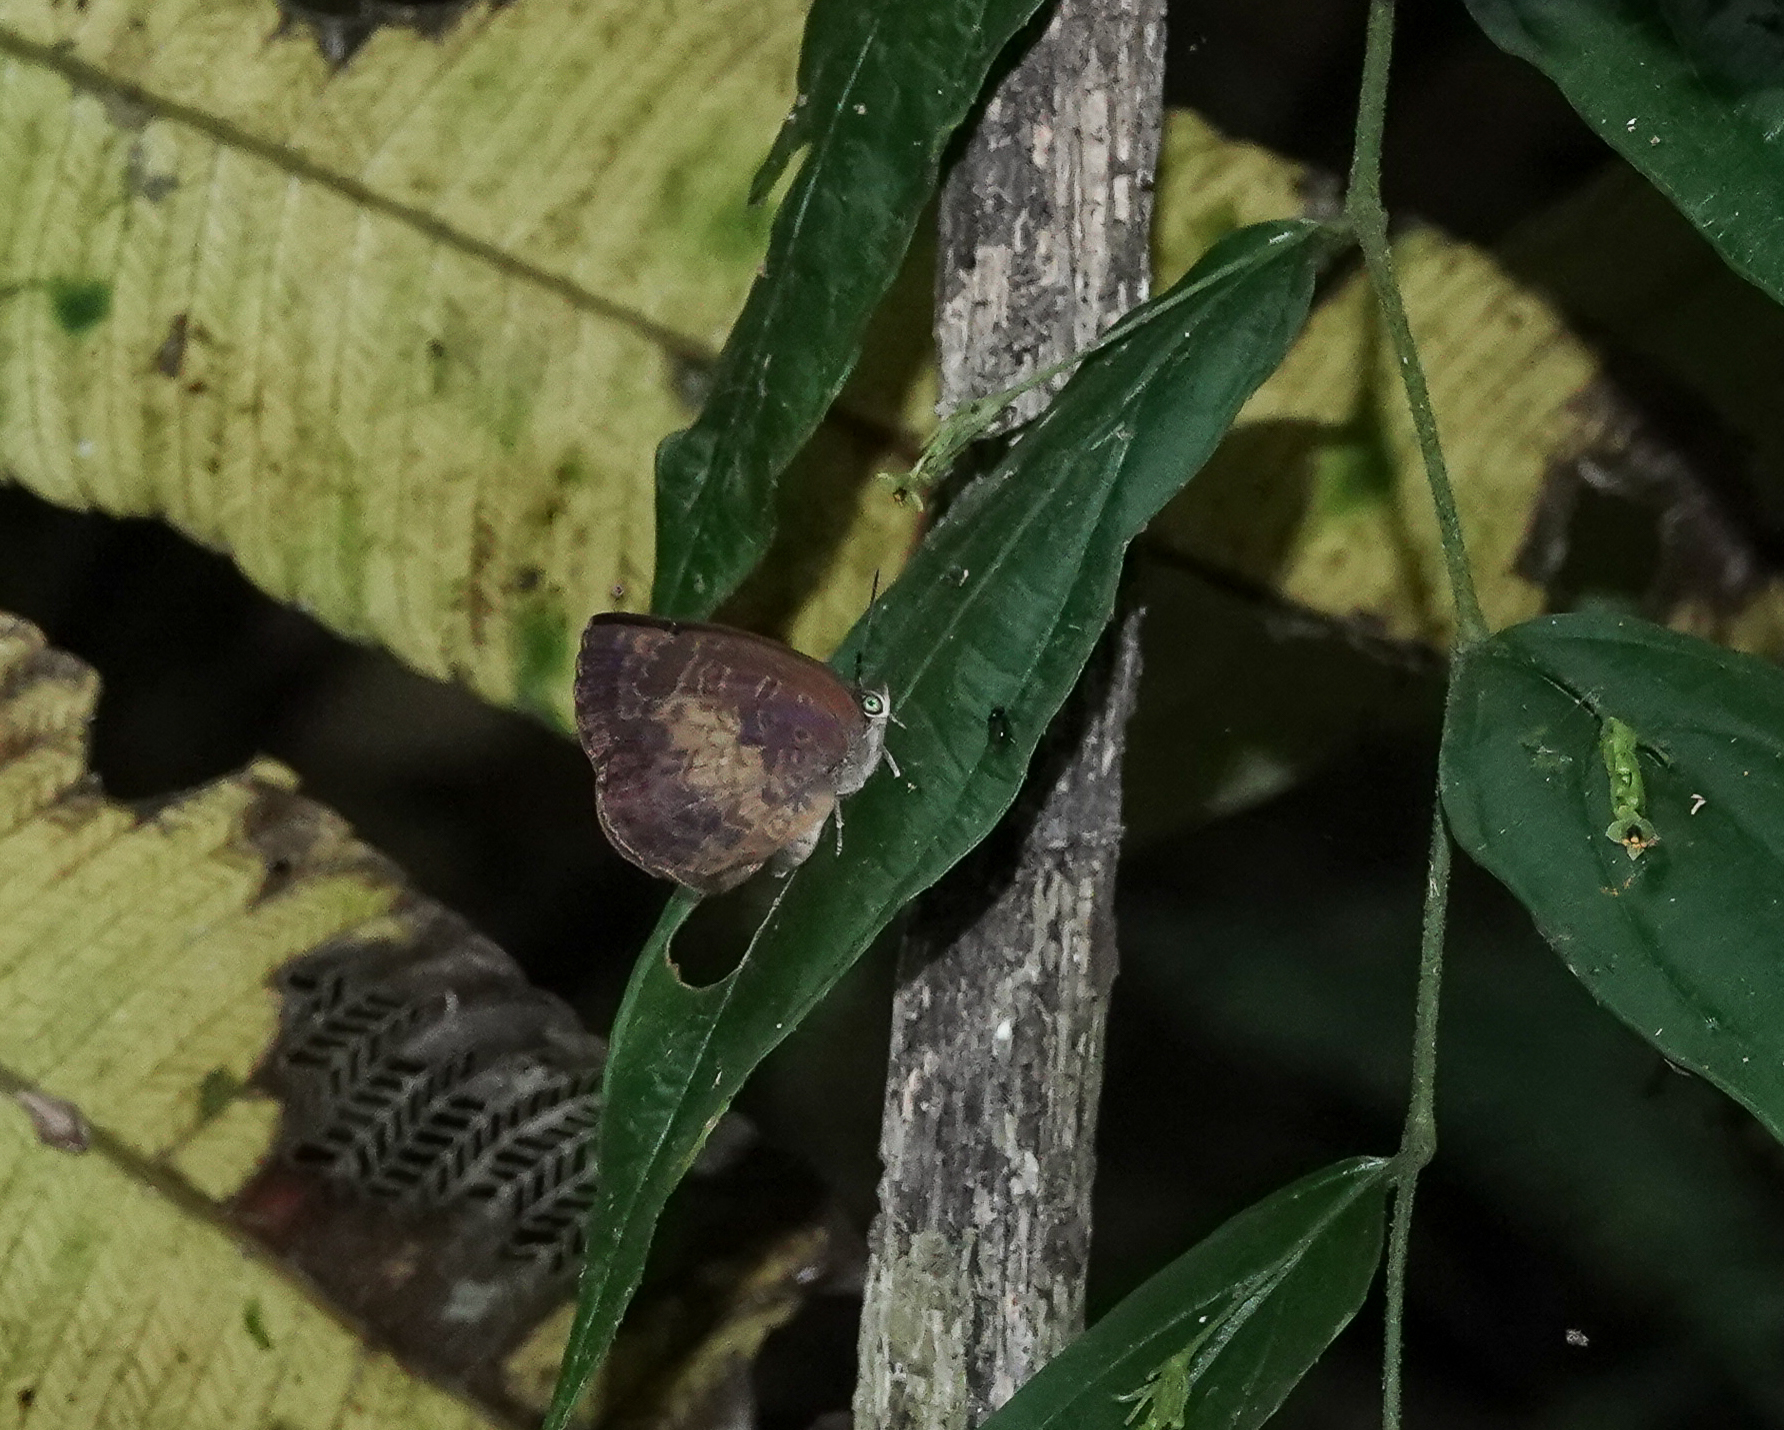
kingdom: Animalia
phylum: Arthropoda
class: Insecta
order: Lepidoptera
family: Lycaenidae
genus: Arhopala
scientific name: Arhopala perimuta
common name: Yellowdisc oakblue
